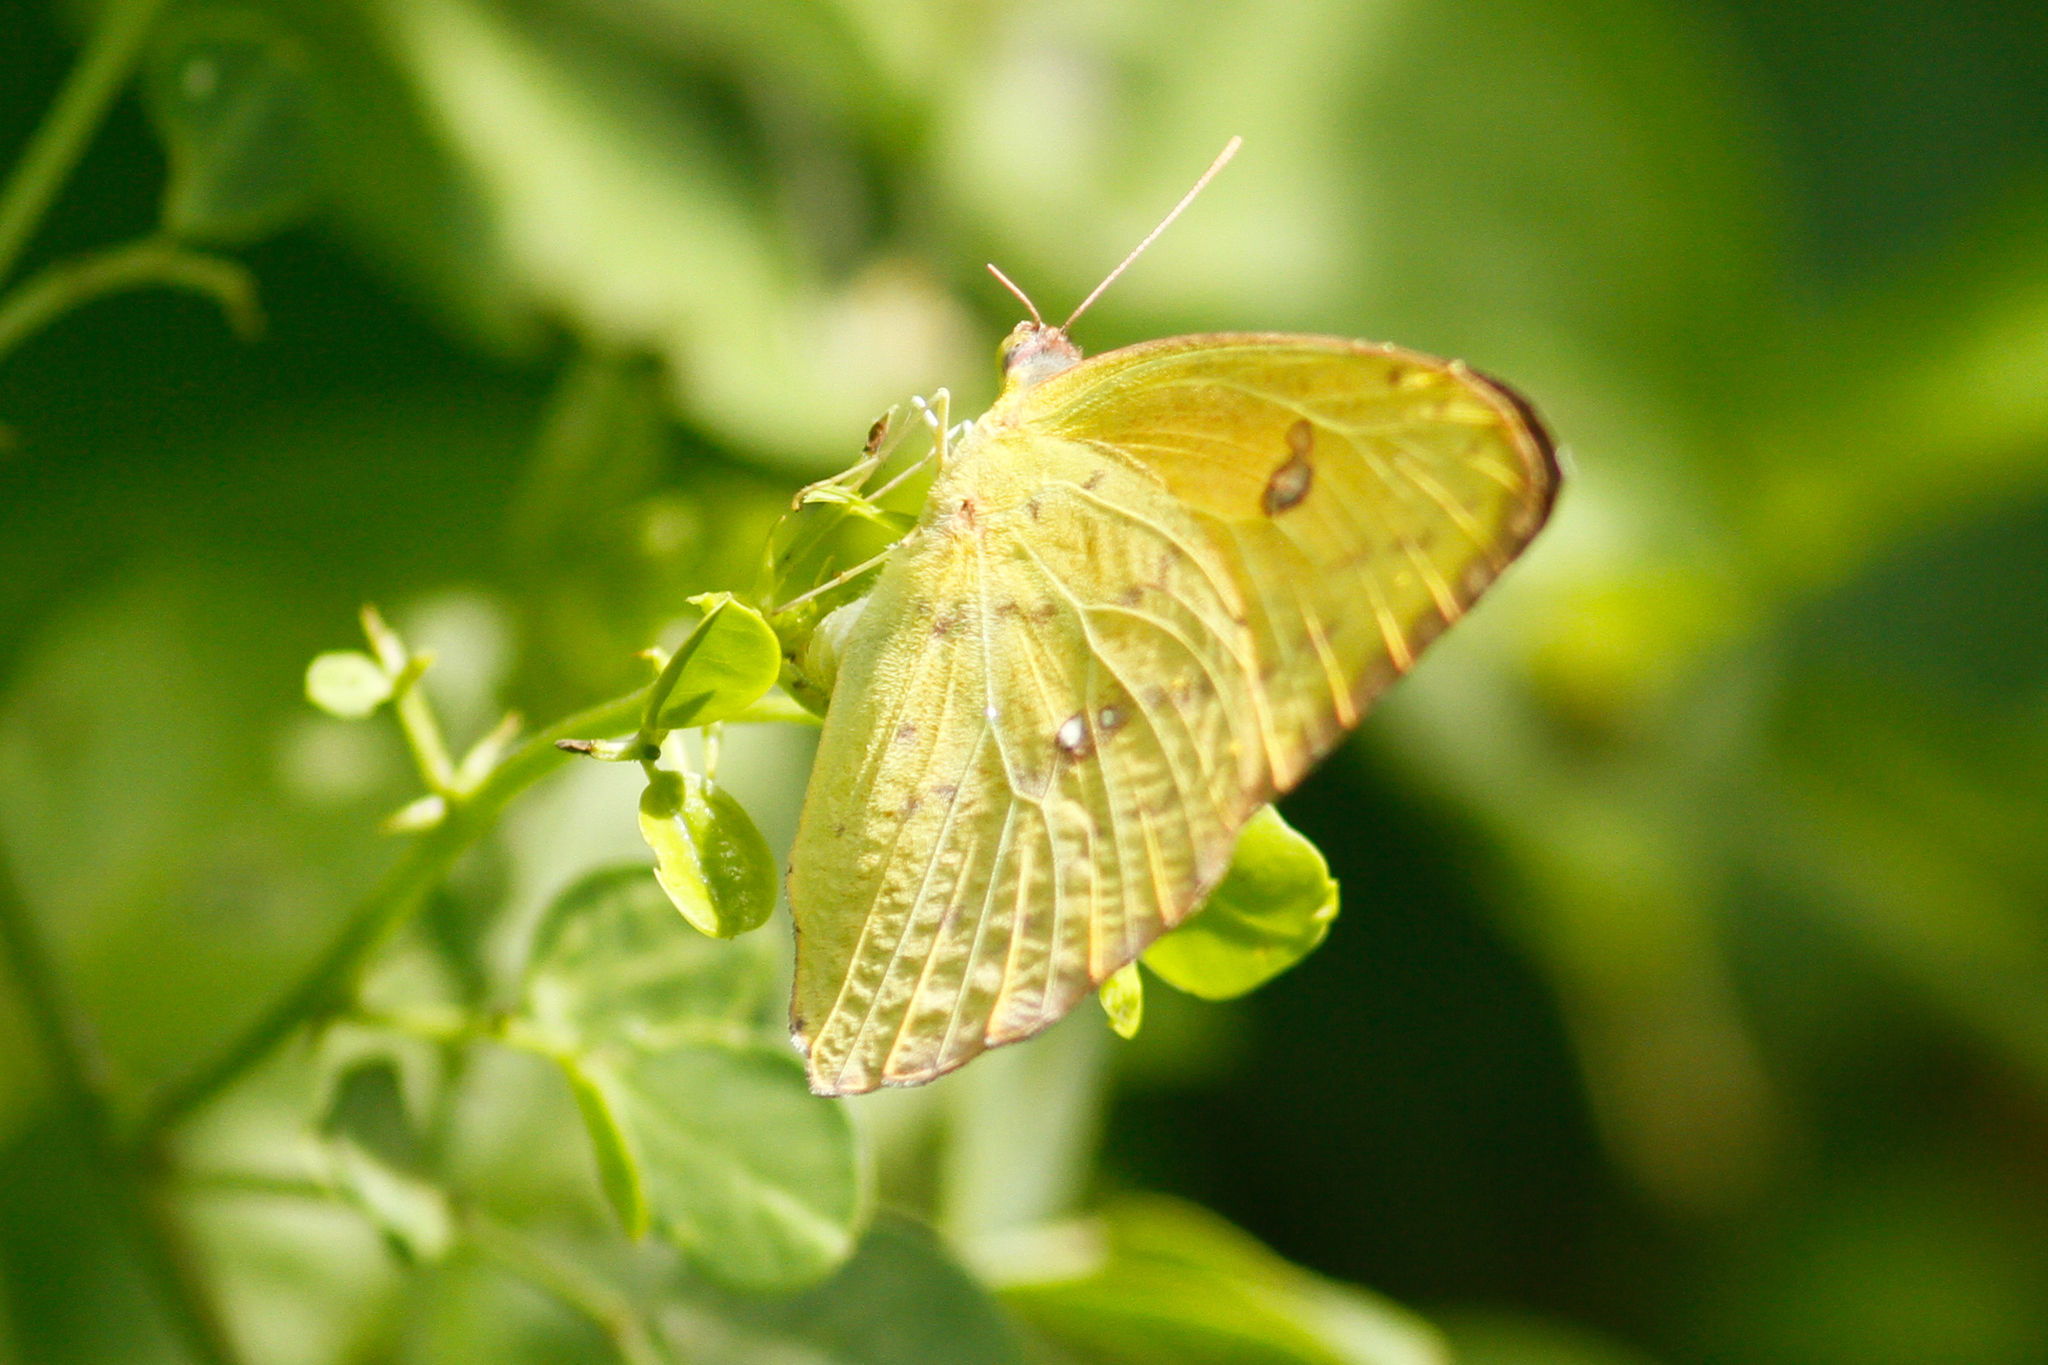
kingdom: Animalia
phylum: Arthropoda
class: Insecta
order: Lepidoptera
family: Pieridae
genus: Phoebis
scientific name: Phoebis sennae
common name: Cloudless sulphur
